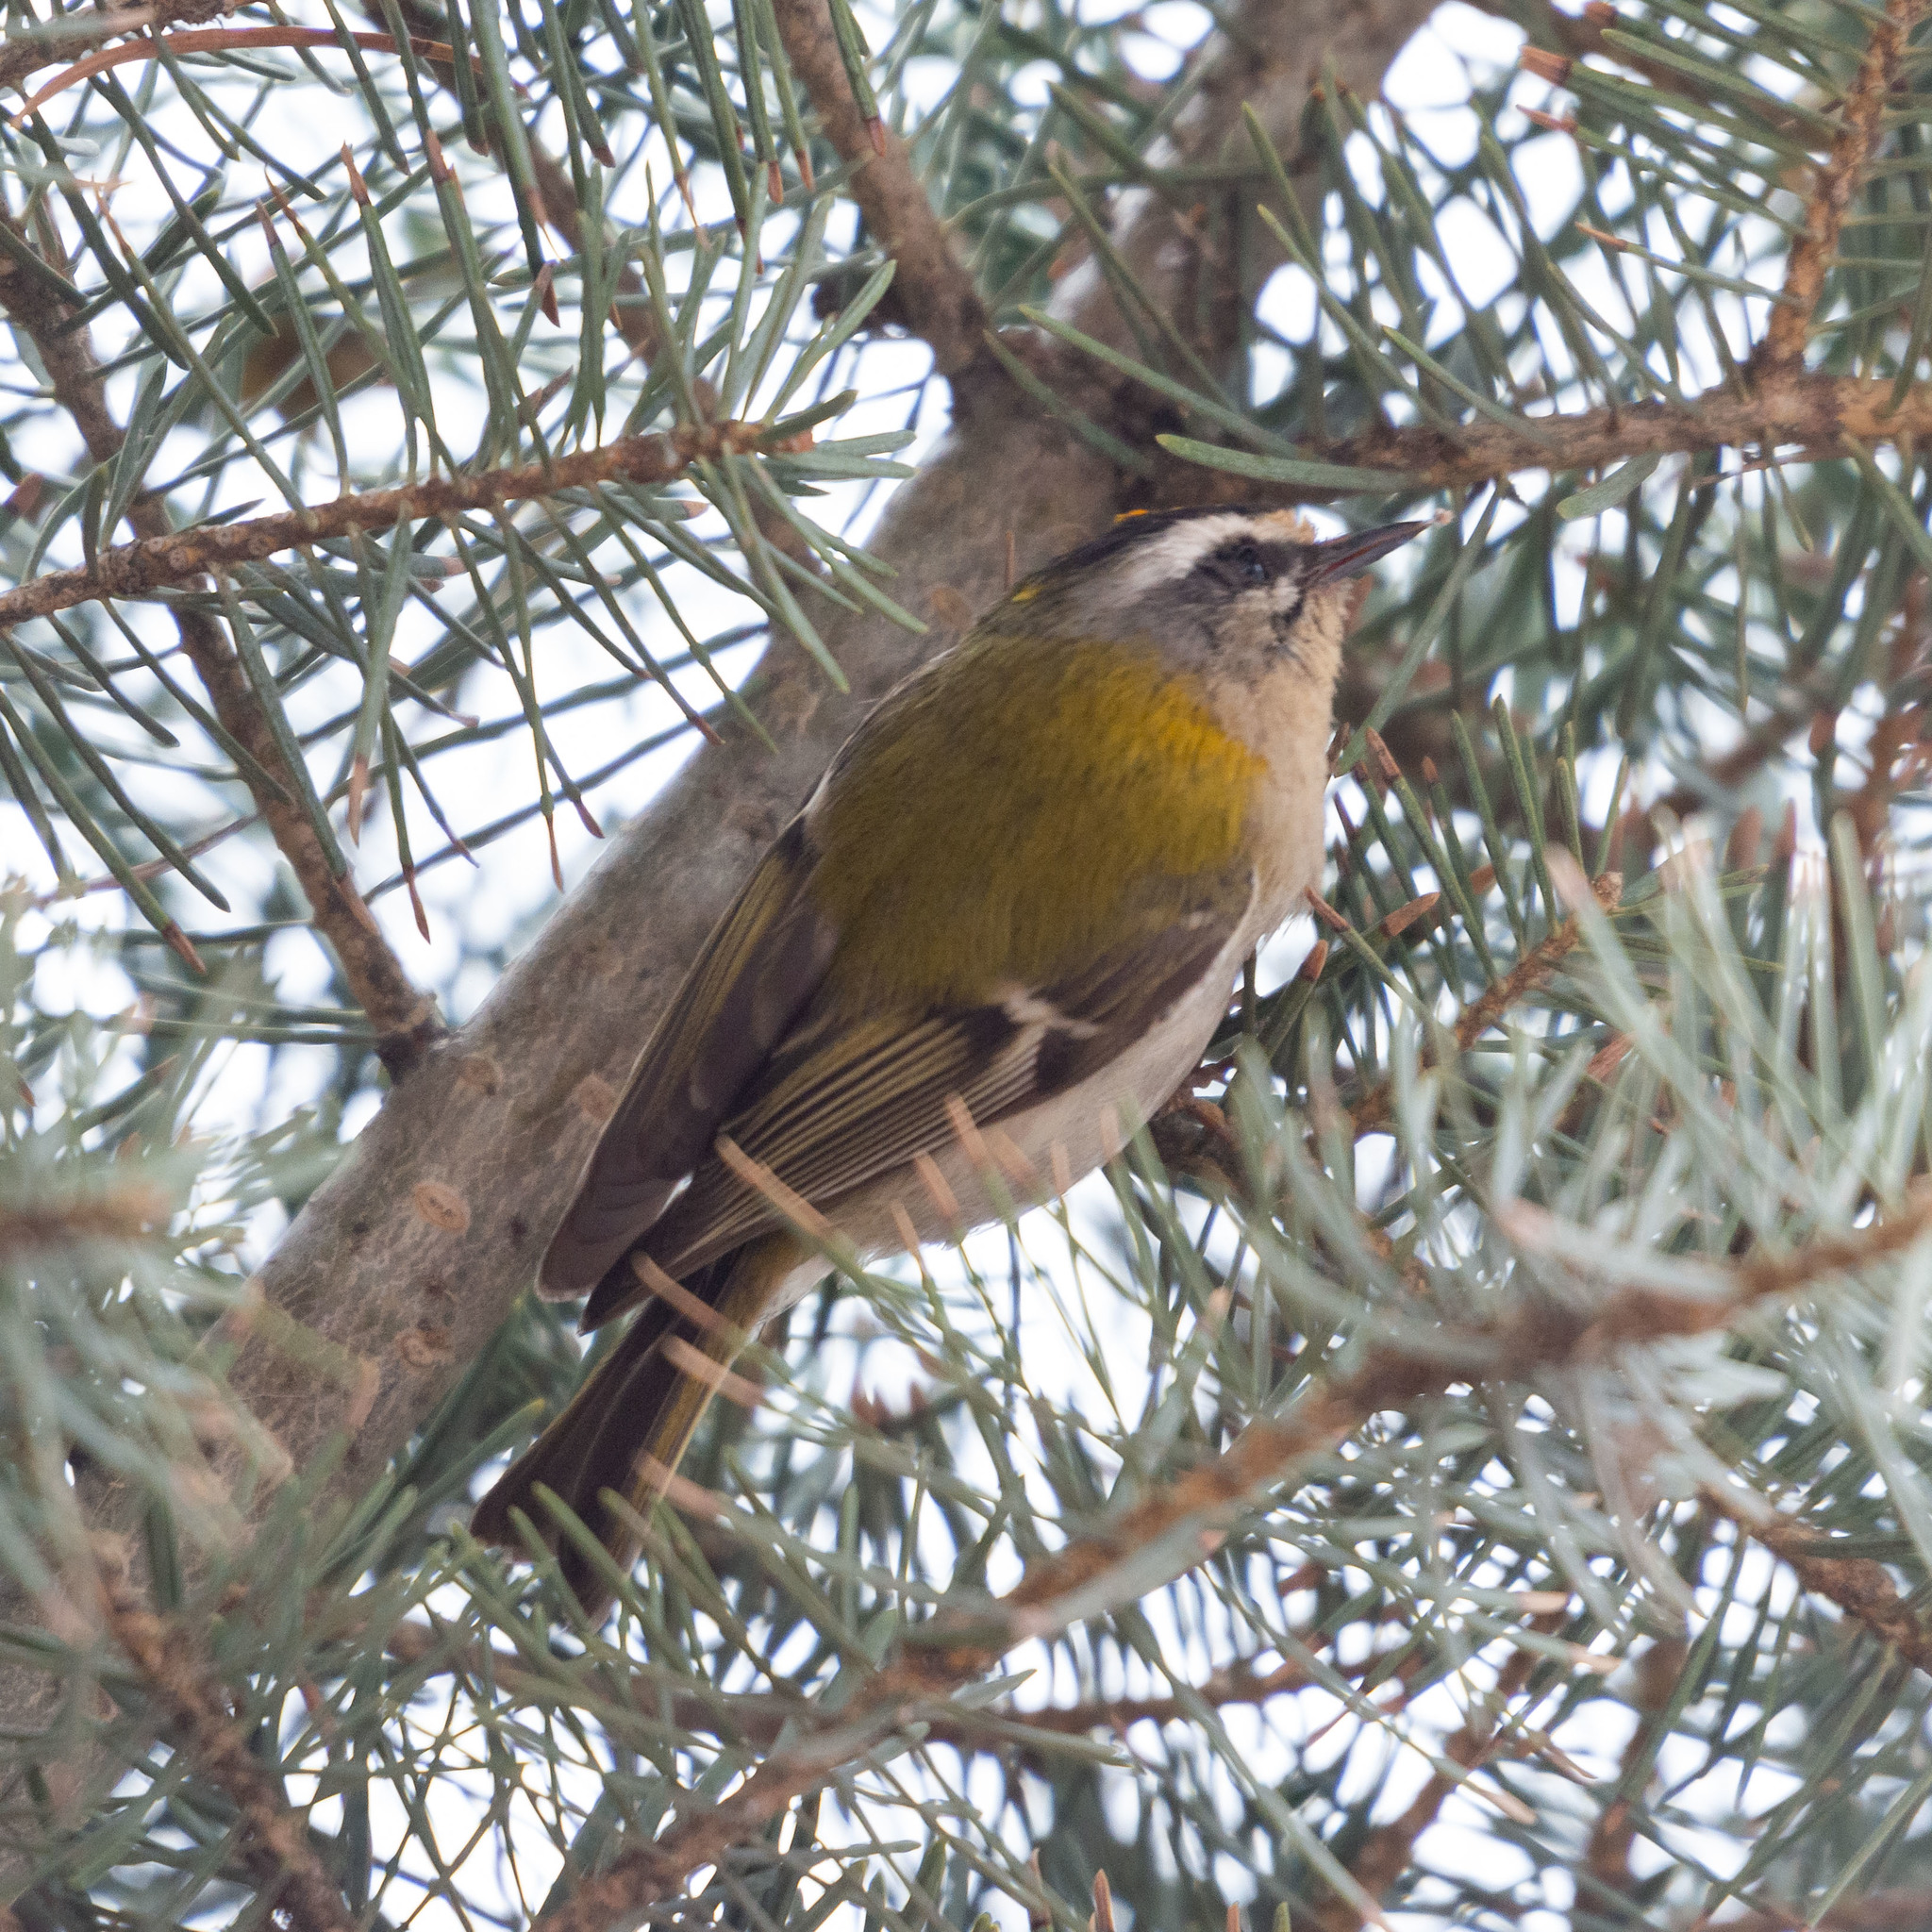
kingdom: Animalia
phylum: Chordata
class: Aves
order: Passeriformes
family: Regulidae
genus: Regulus
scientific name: Regulus ignicapilla
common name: Firecrest
